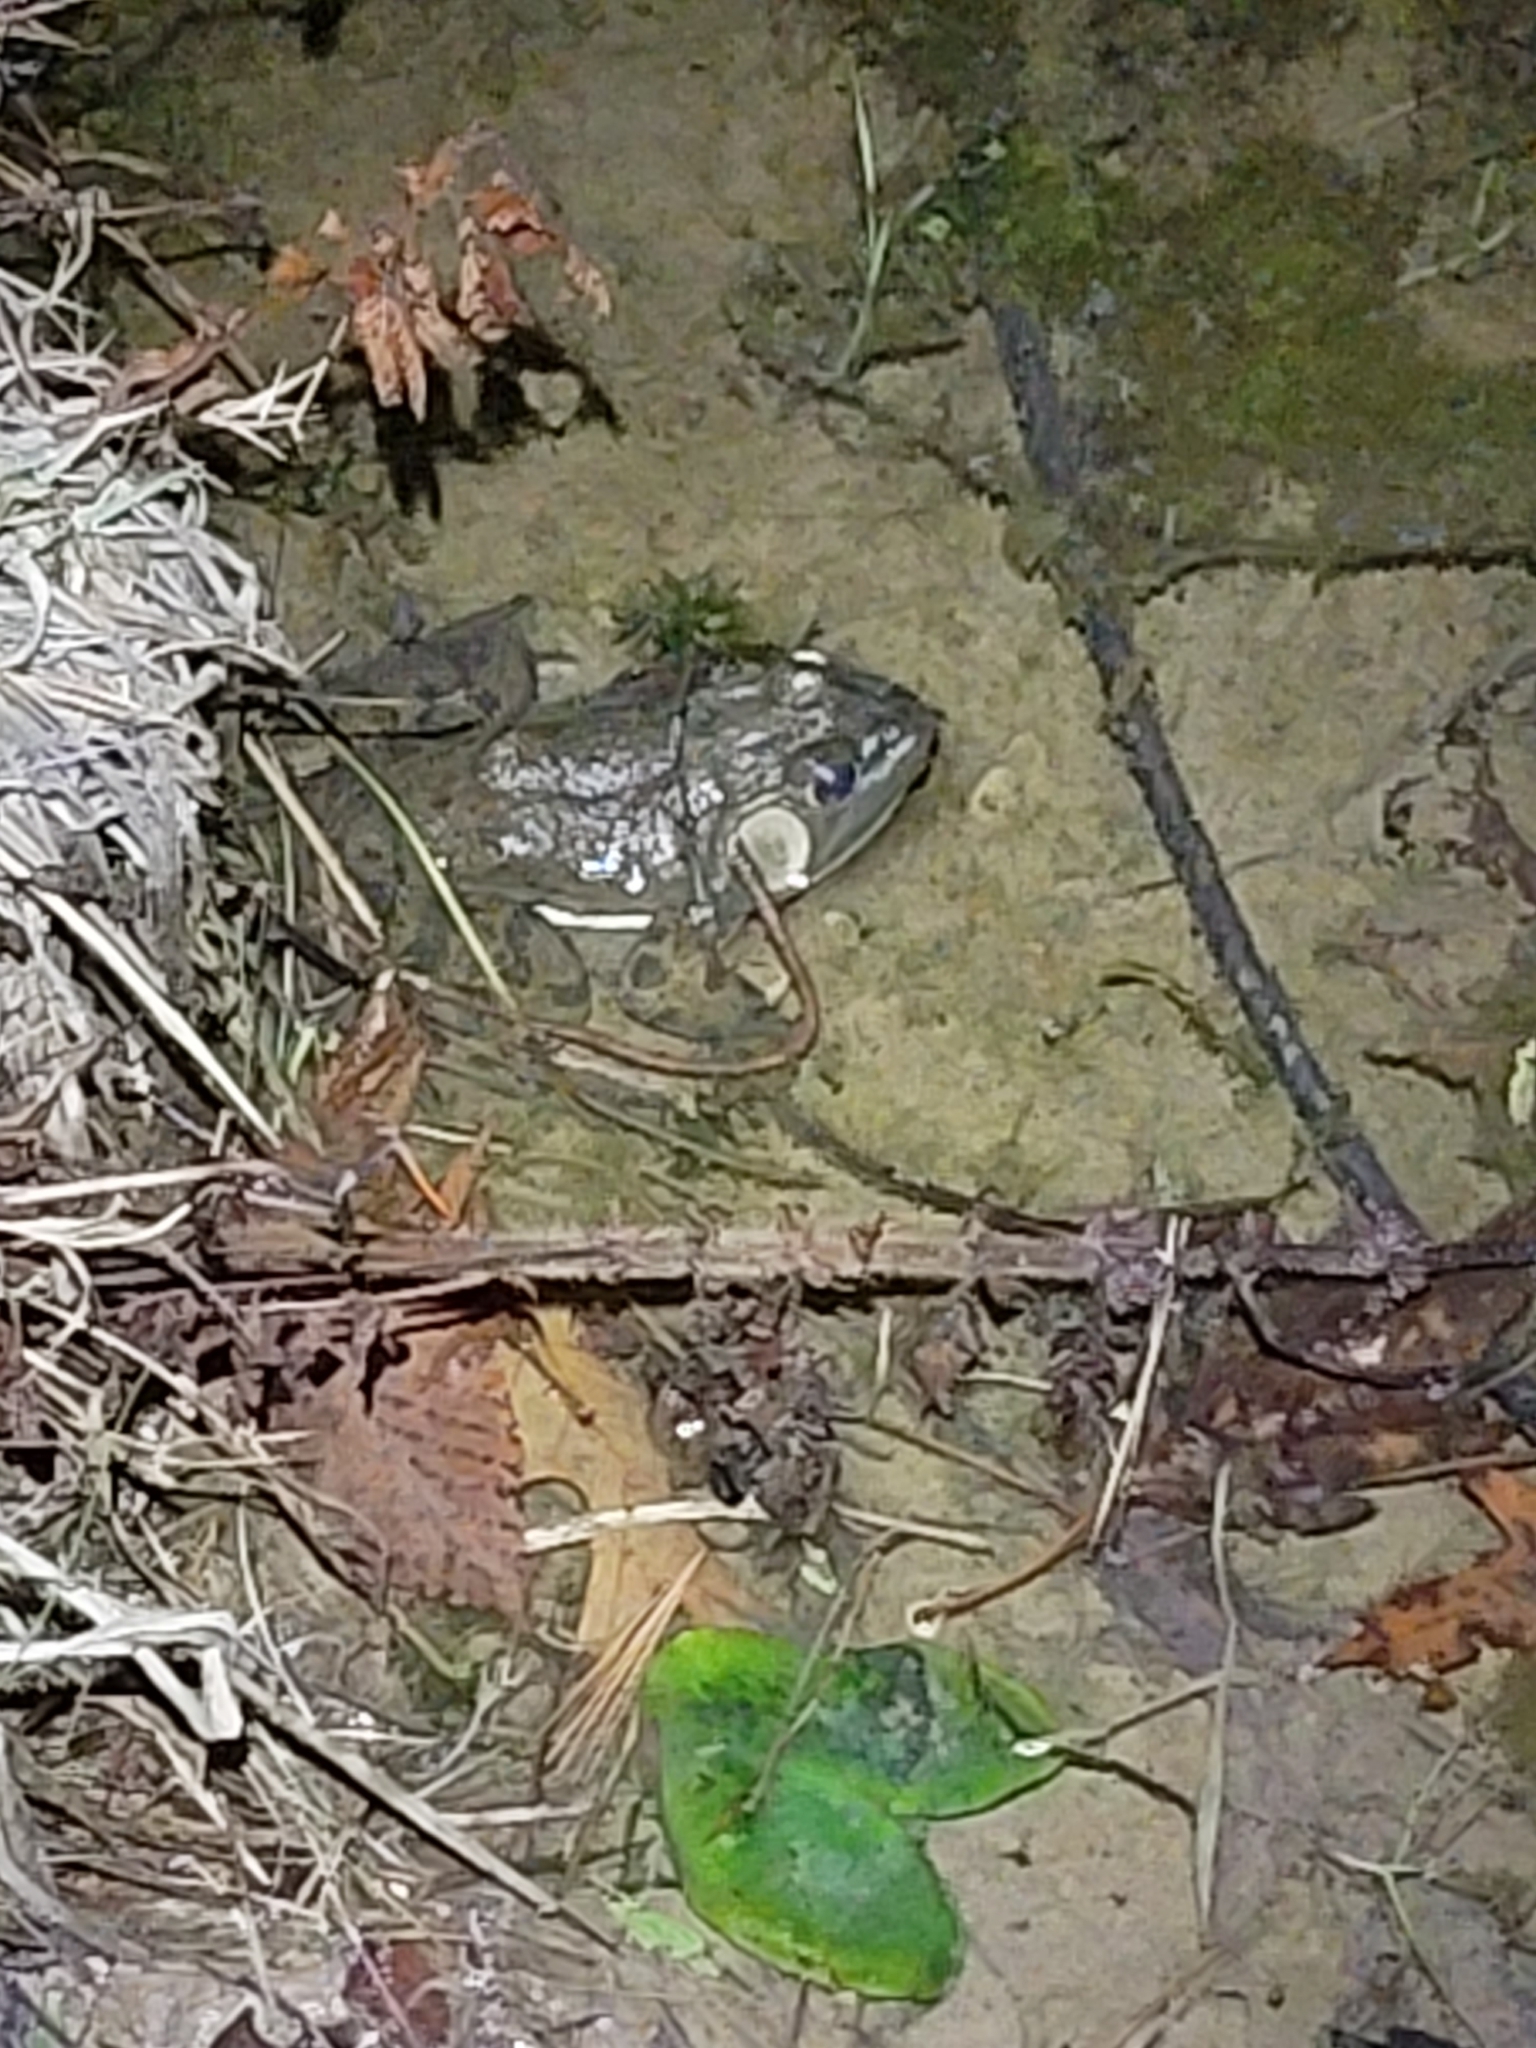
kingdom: Animalia
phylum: Chordata
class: Amphibia
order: Anura
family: Ranidae
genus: Lithobates
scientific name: Lithobates catesbeianus
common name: American bullfrog
